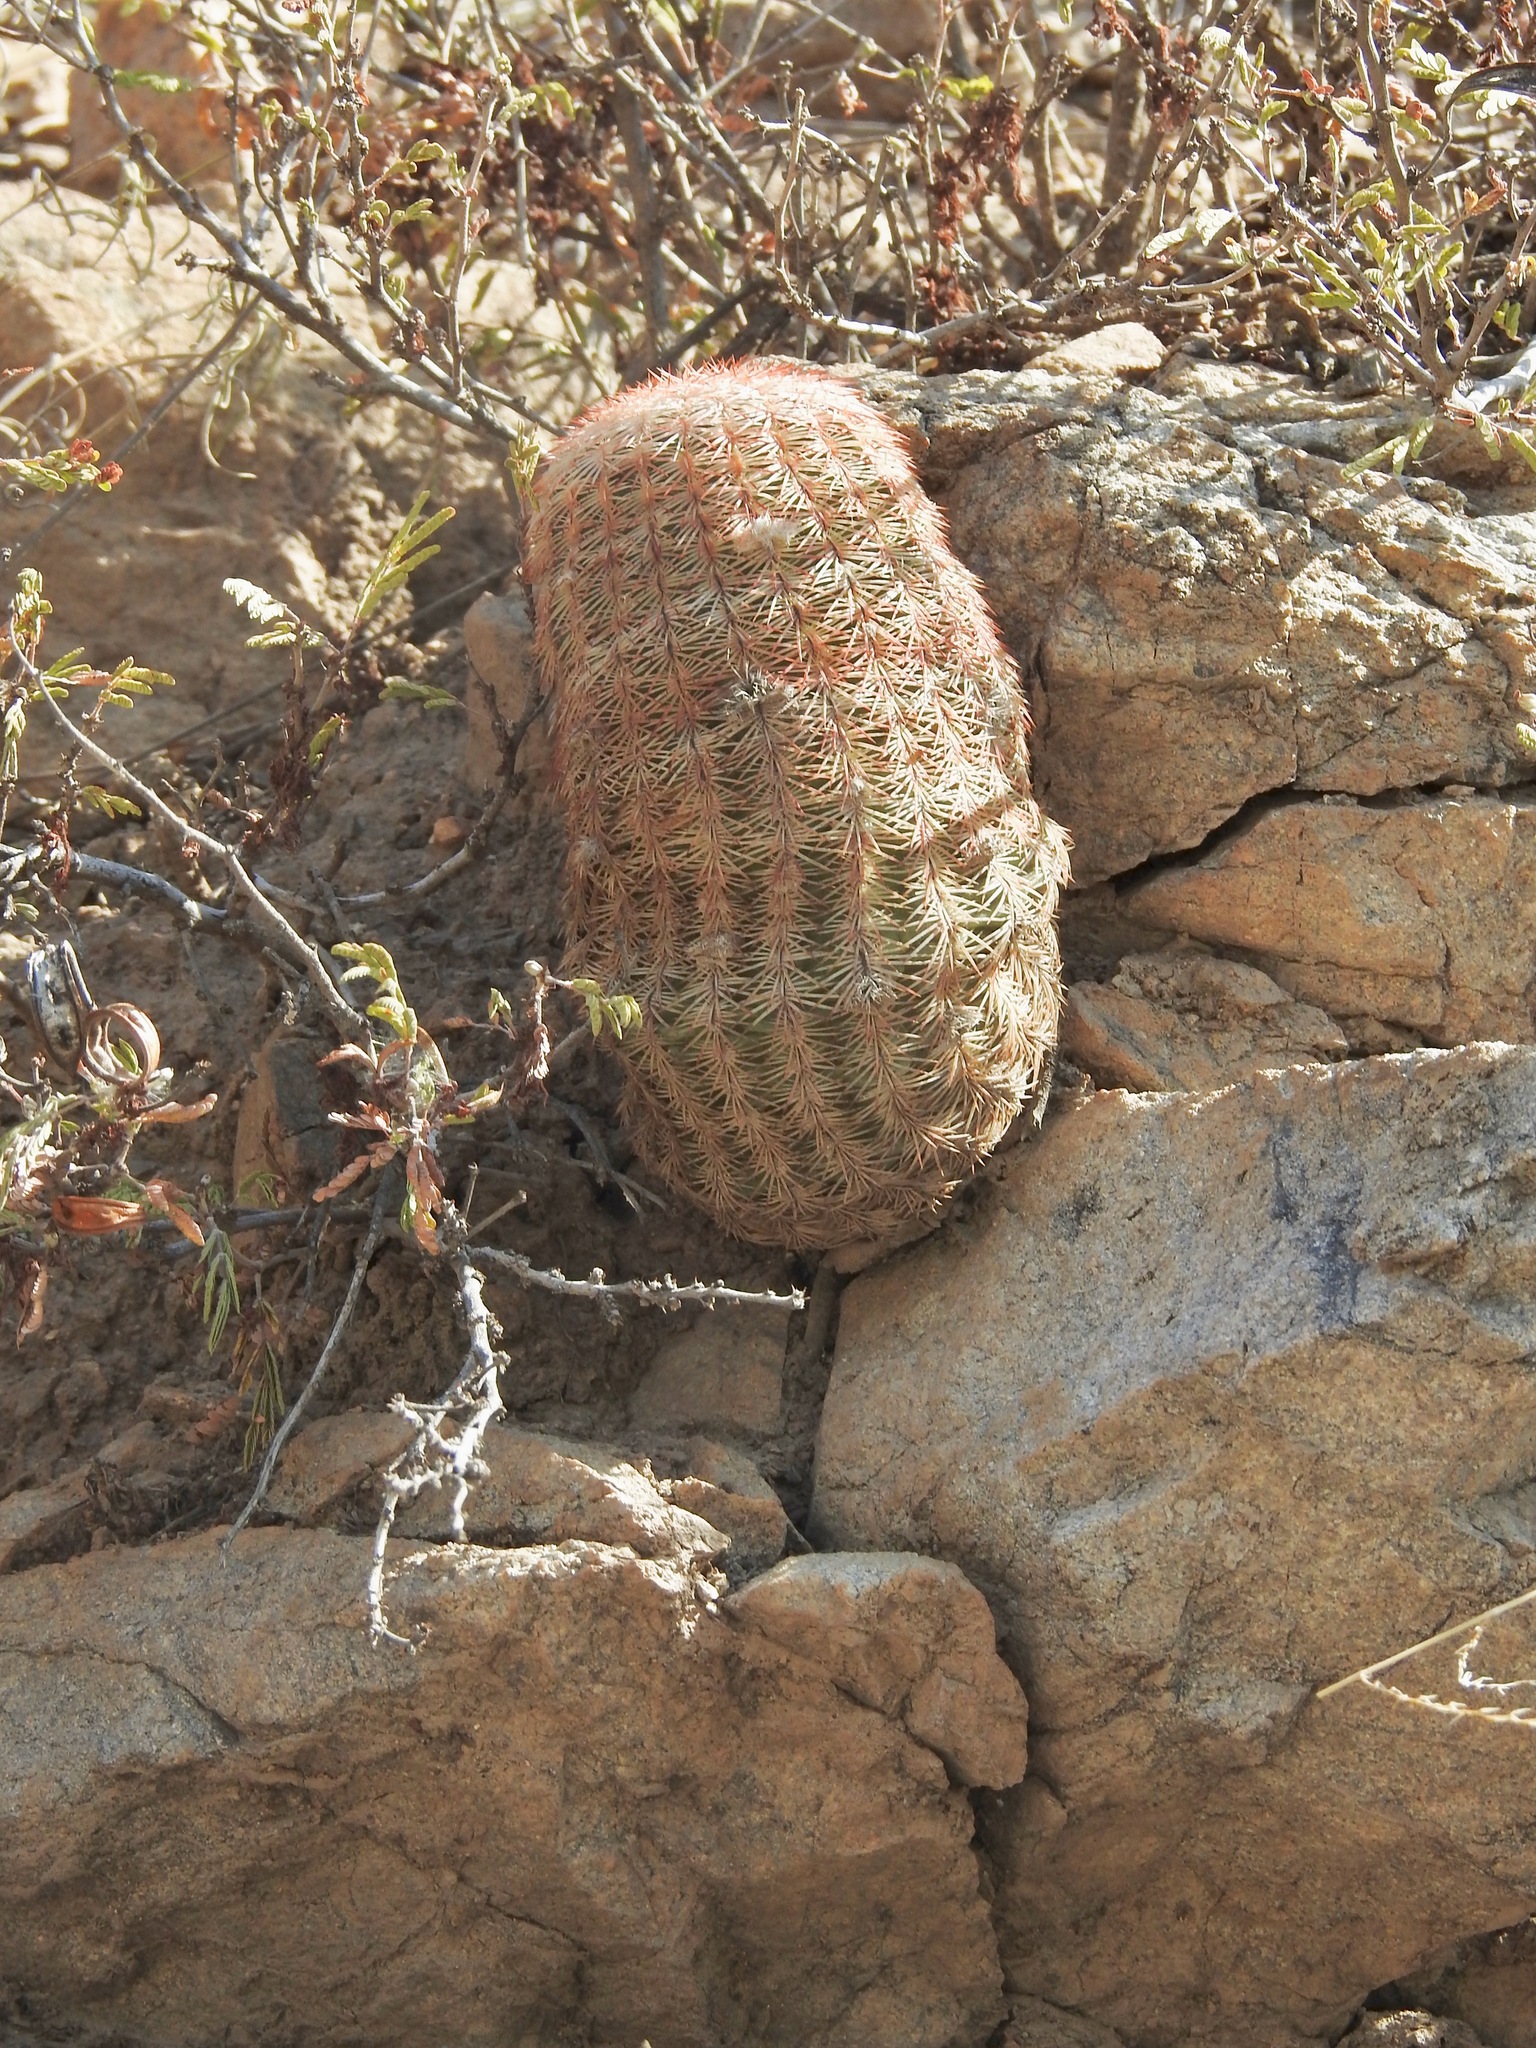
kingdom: Plantae
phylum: Tracheophyta
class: Magnoliopsida
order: Caryophyllales
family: Cactaceae
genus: Echinocereus
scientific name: Echinocereus rigidissimus
